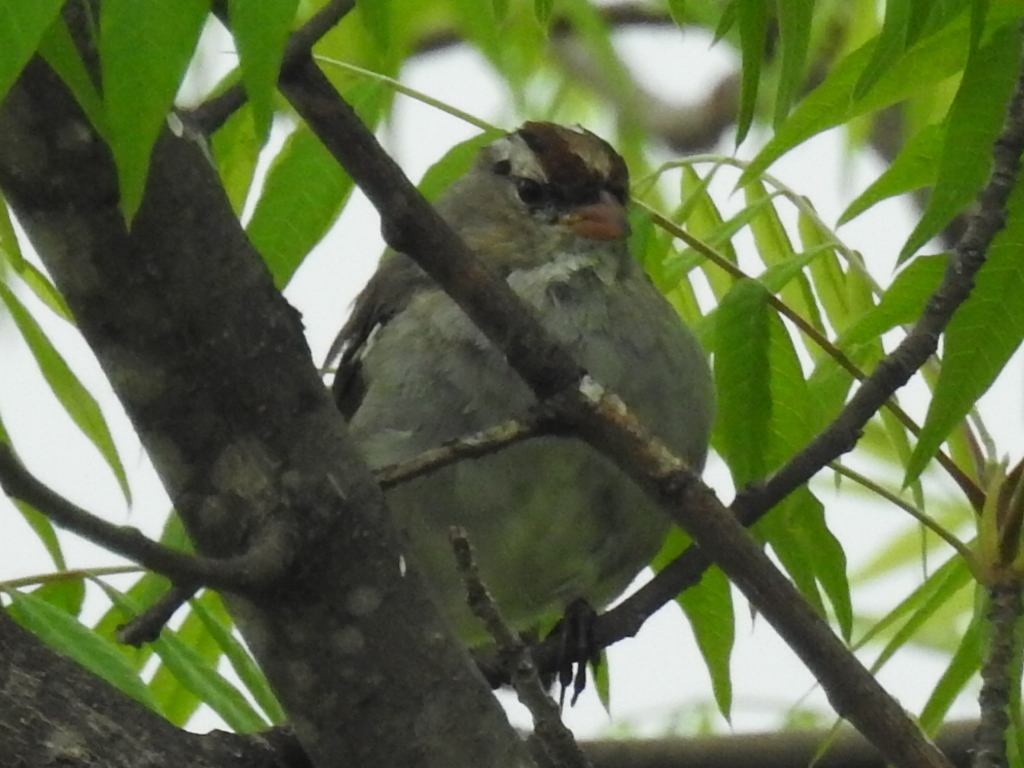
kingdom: Animalia
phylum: Chordata
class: Aves
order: Passeriformes
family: Passerellidae
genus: Zonotrichia
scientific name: Zonotrichia leucophrys
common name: White-crowned sparrow
